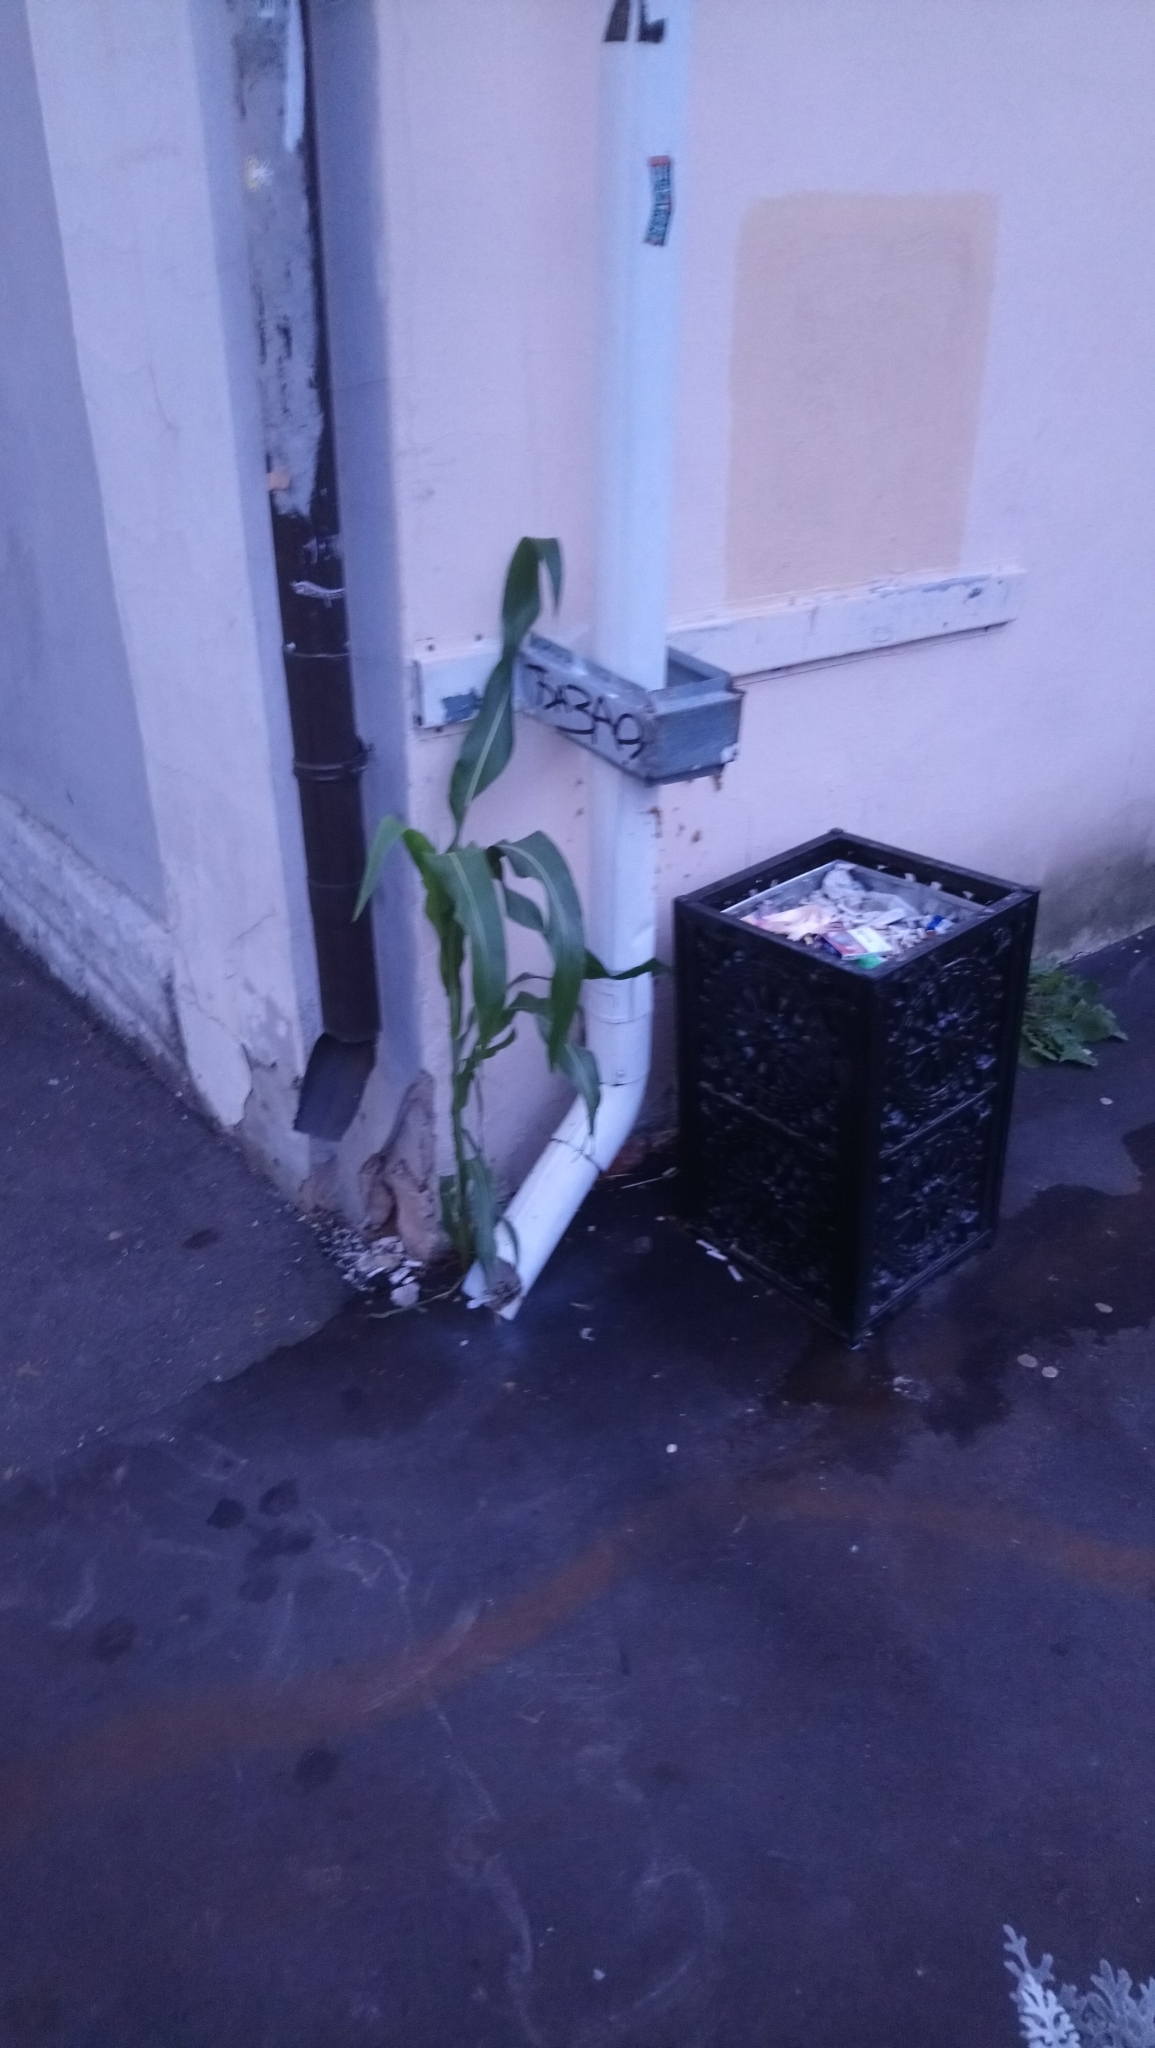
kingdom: Plantae
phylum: Tracheophyta
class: Liliopsida
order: Poales
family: Poaceae
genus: Zea
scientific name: Zea mays
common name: Maize
